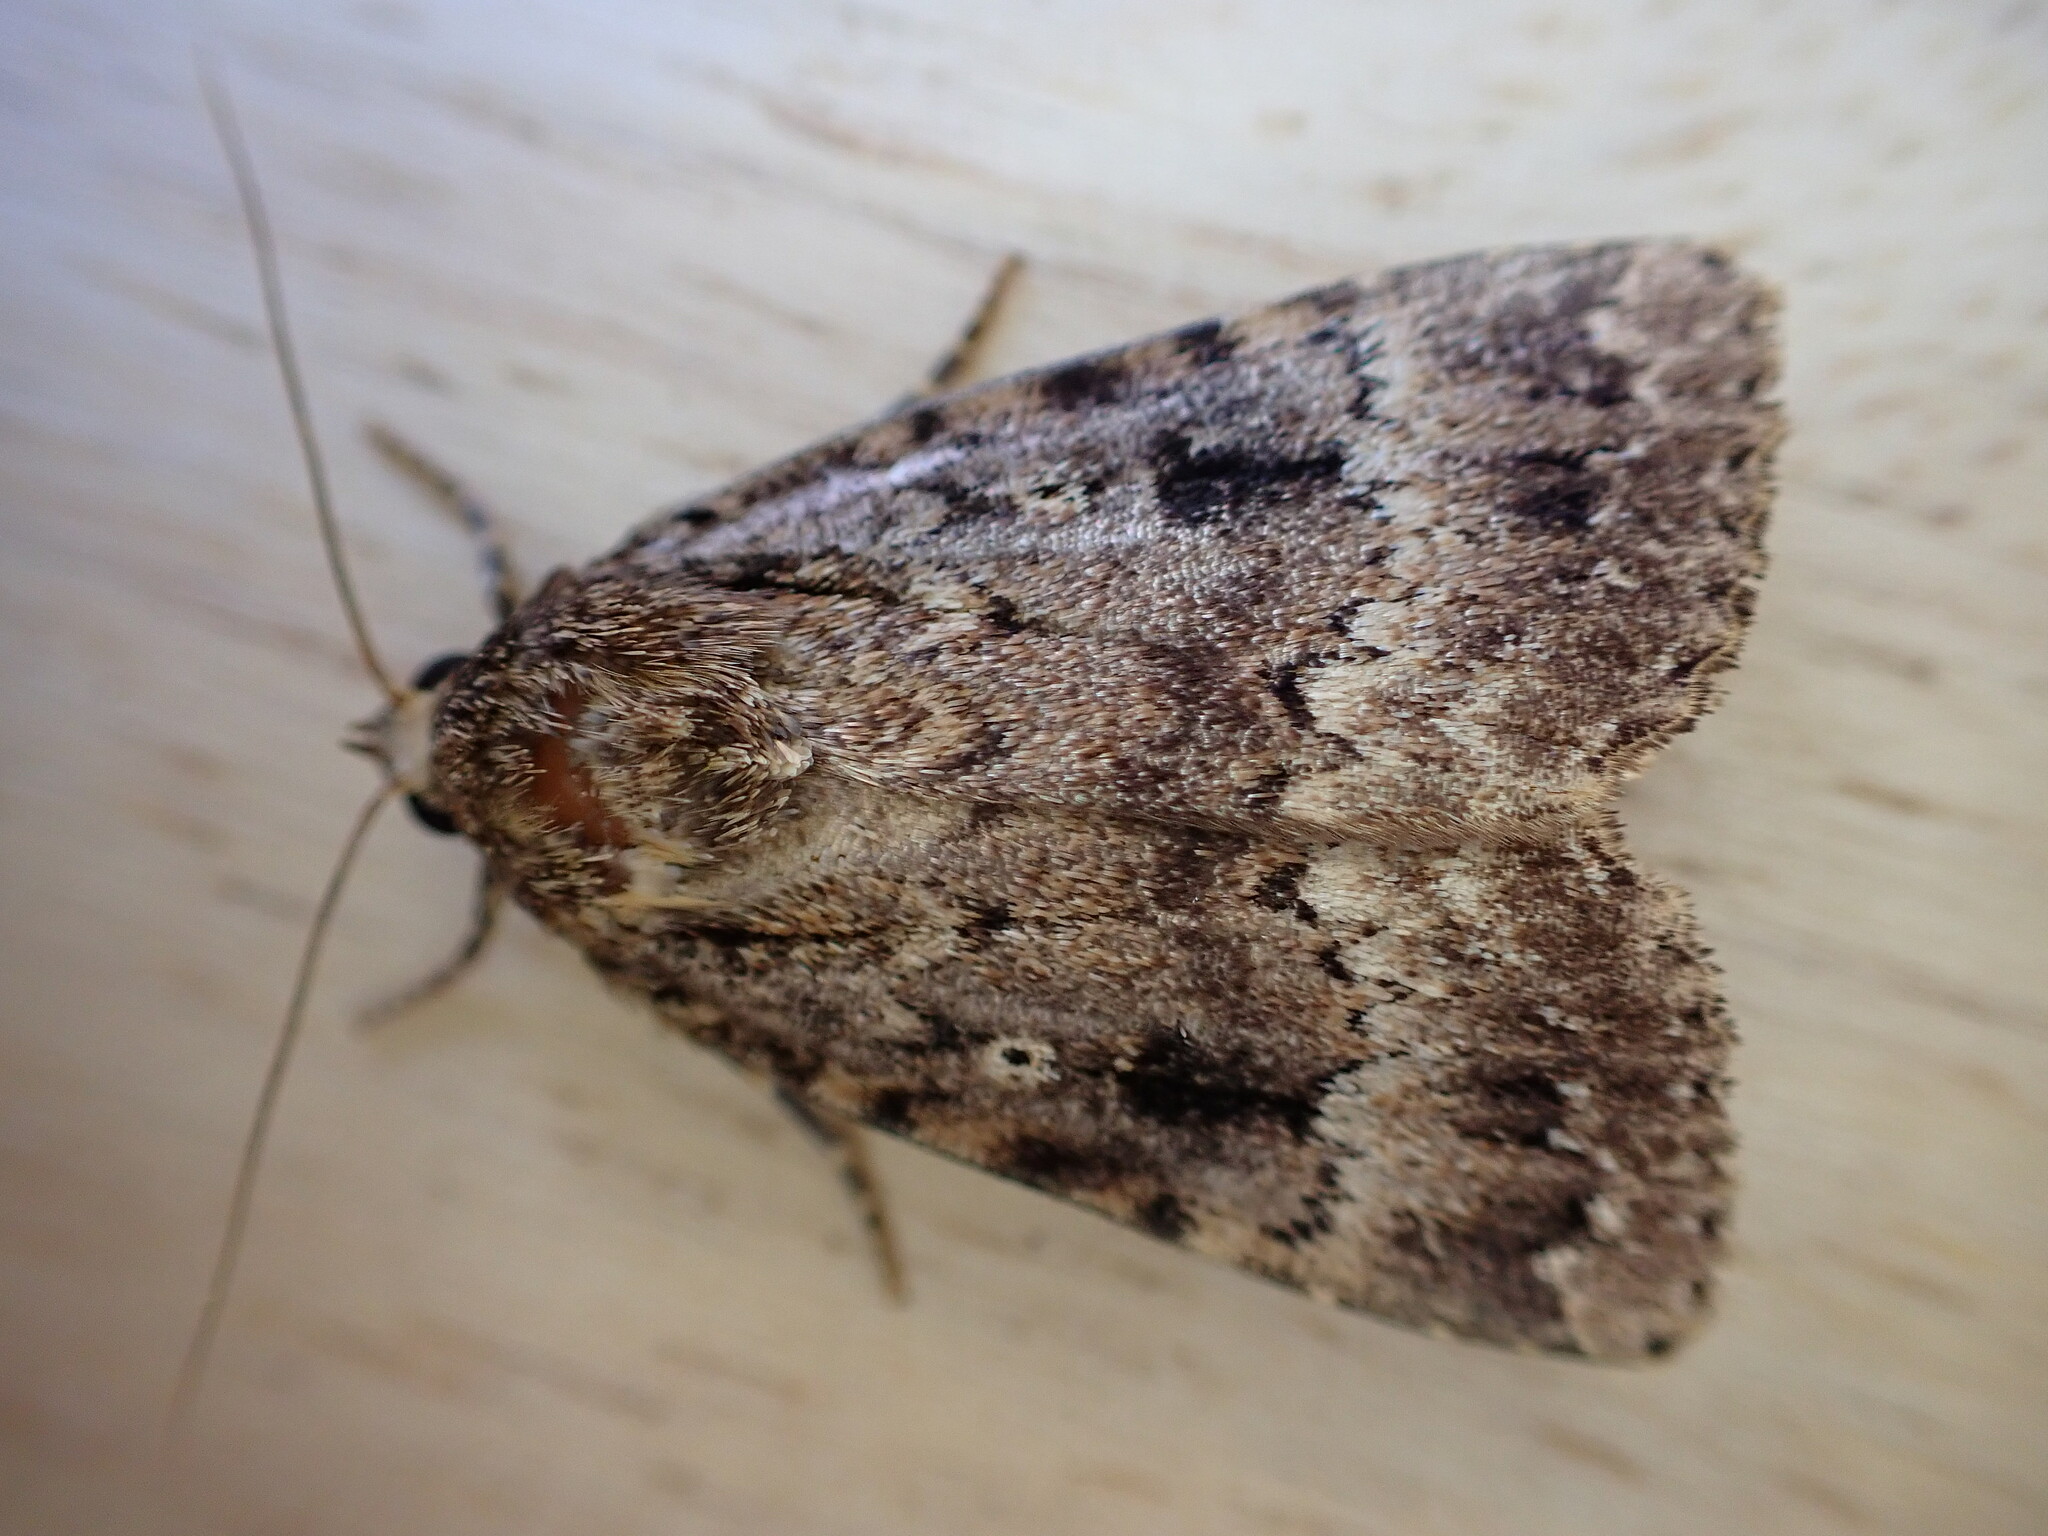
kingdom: Animalia
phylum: Arthropoda
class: Insecta
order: Lepidoptera
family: Noctuidae
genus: Amphipyra
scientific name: Amphipyra
